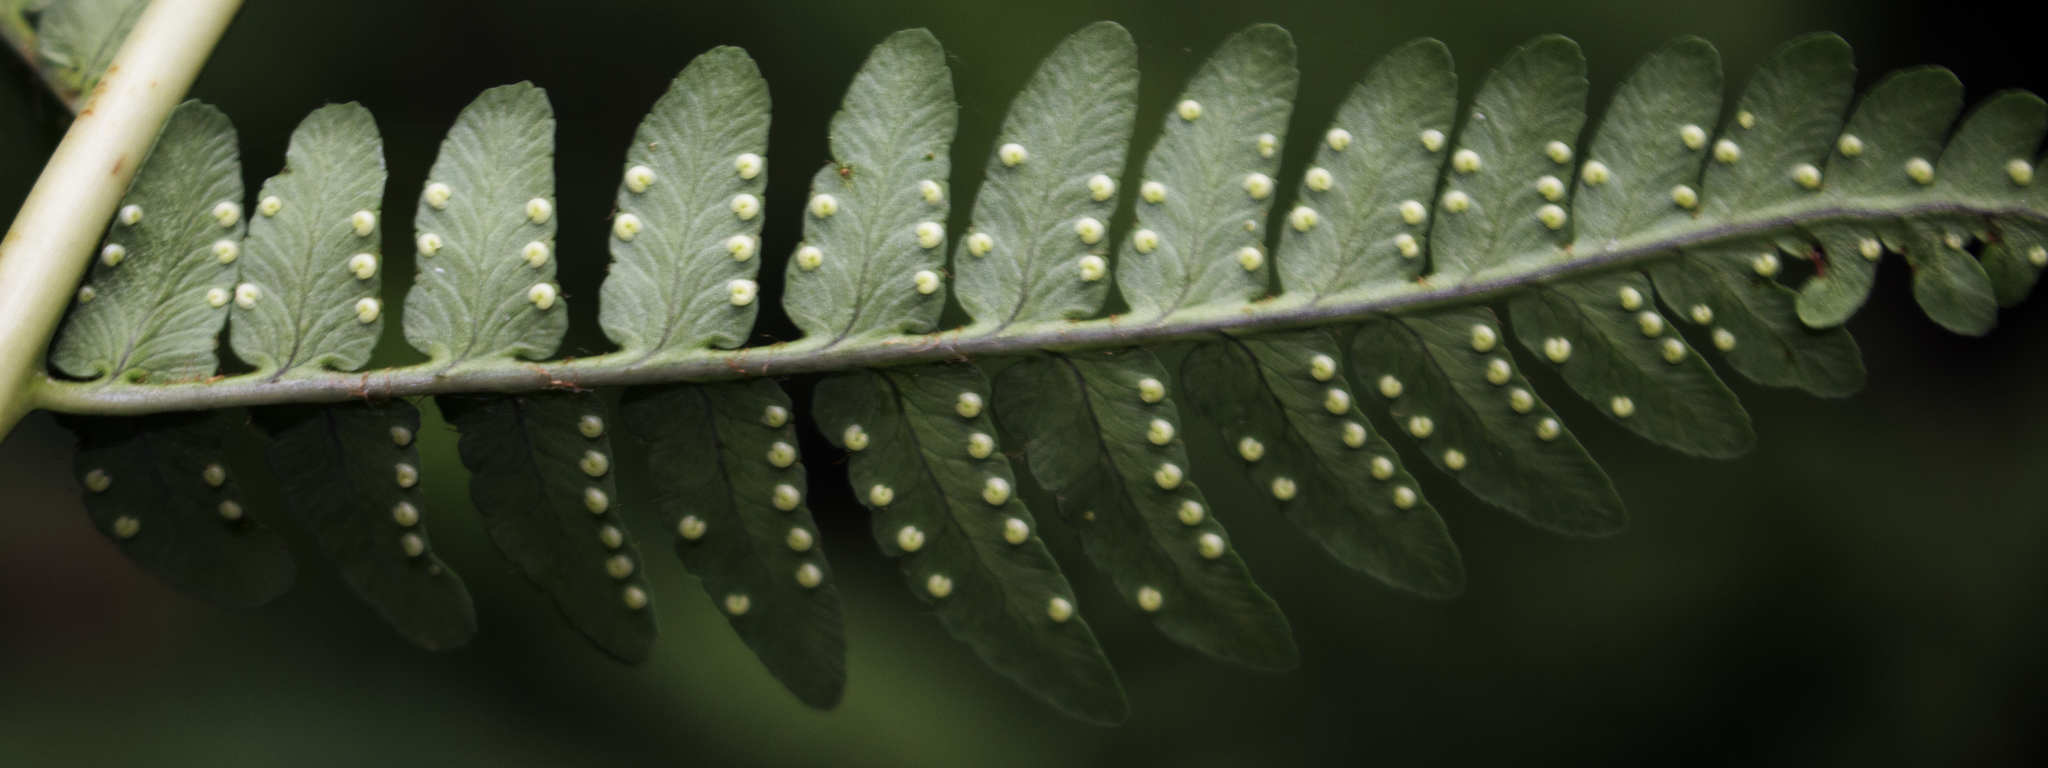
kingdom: Plantae
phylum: Tracheophyta
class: Polypodiopsida
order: Polypodiales
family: Dryopteridaceae
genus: Dryopteris
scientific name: Dryopteris marginalis
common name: Marginal wood fern
